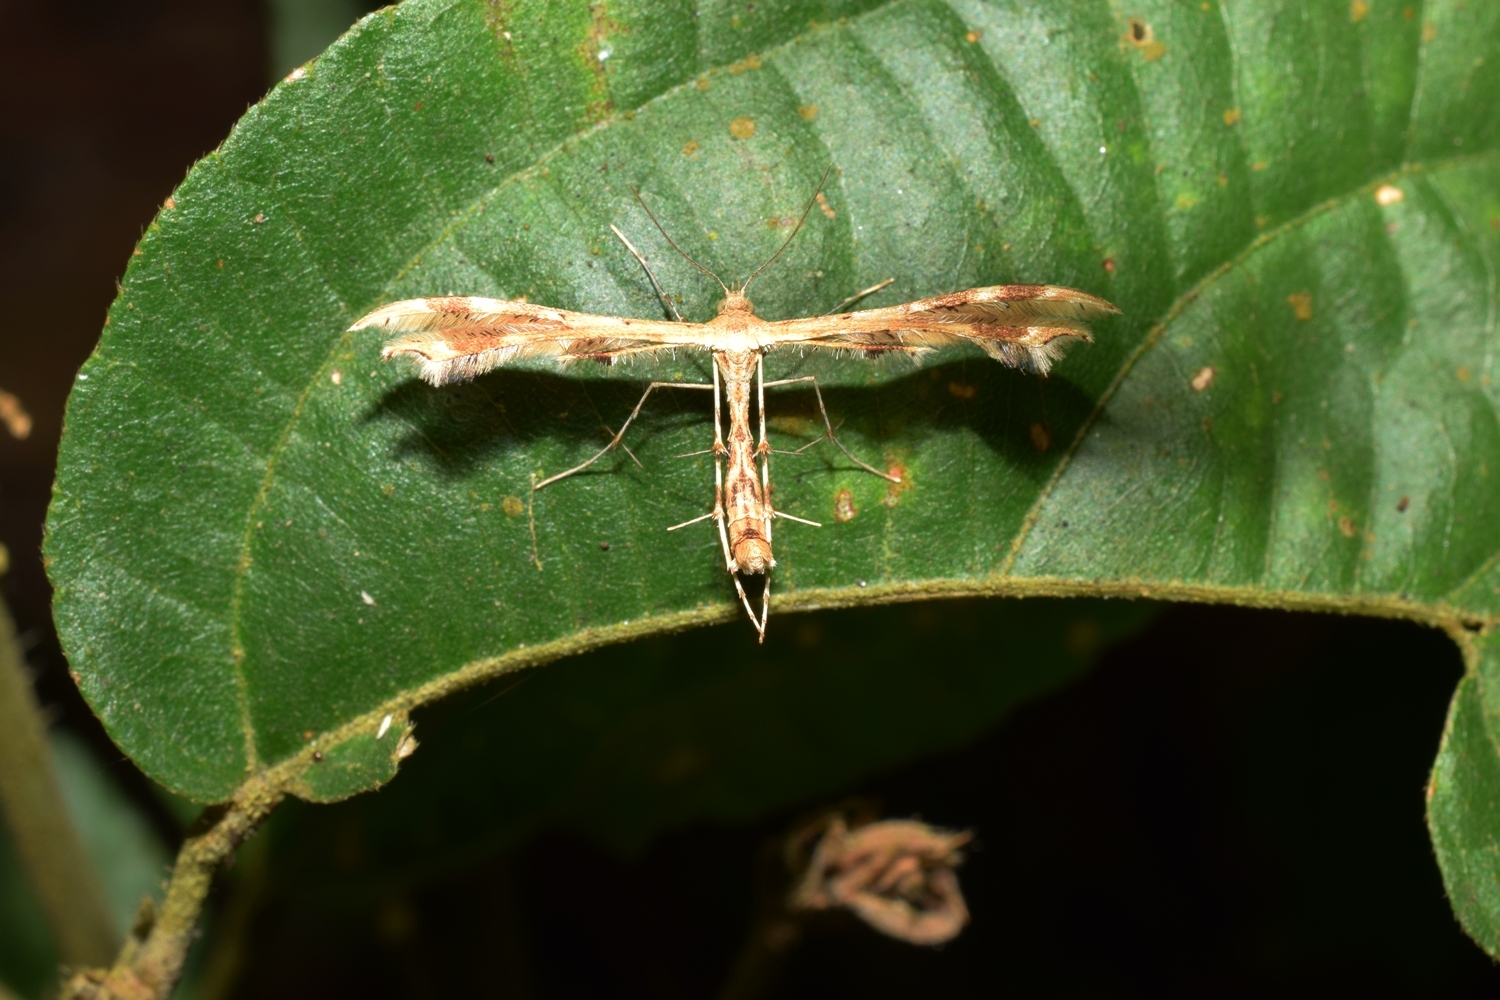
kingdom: Animalia
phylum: Arthropoda
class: Insecta
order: Lepidoptera
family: Pterophoridae
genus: Sphenarches
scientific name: Sphenarches anisodactylus
